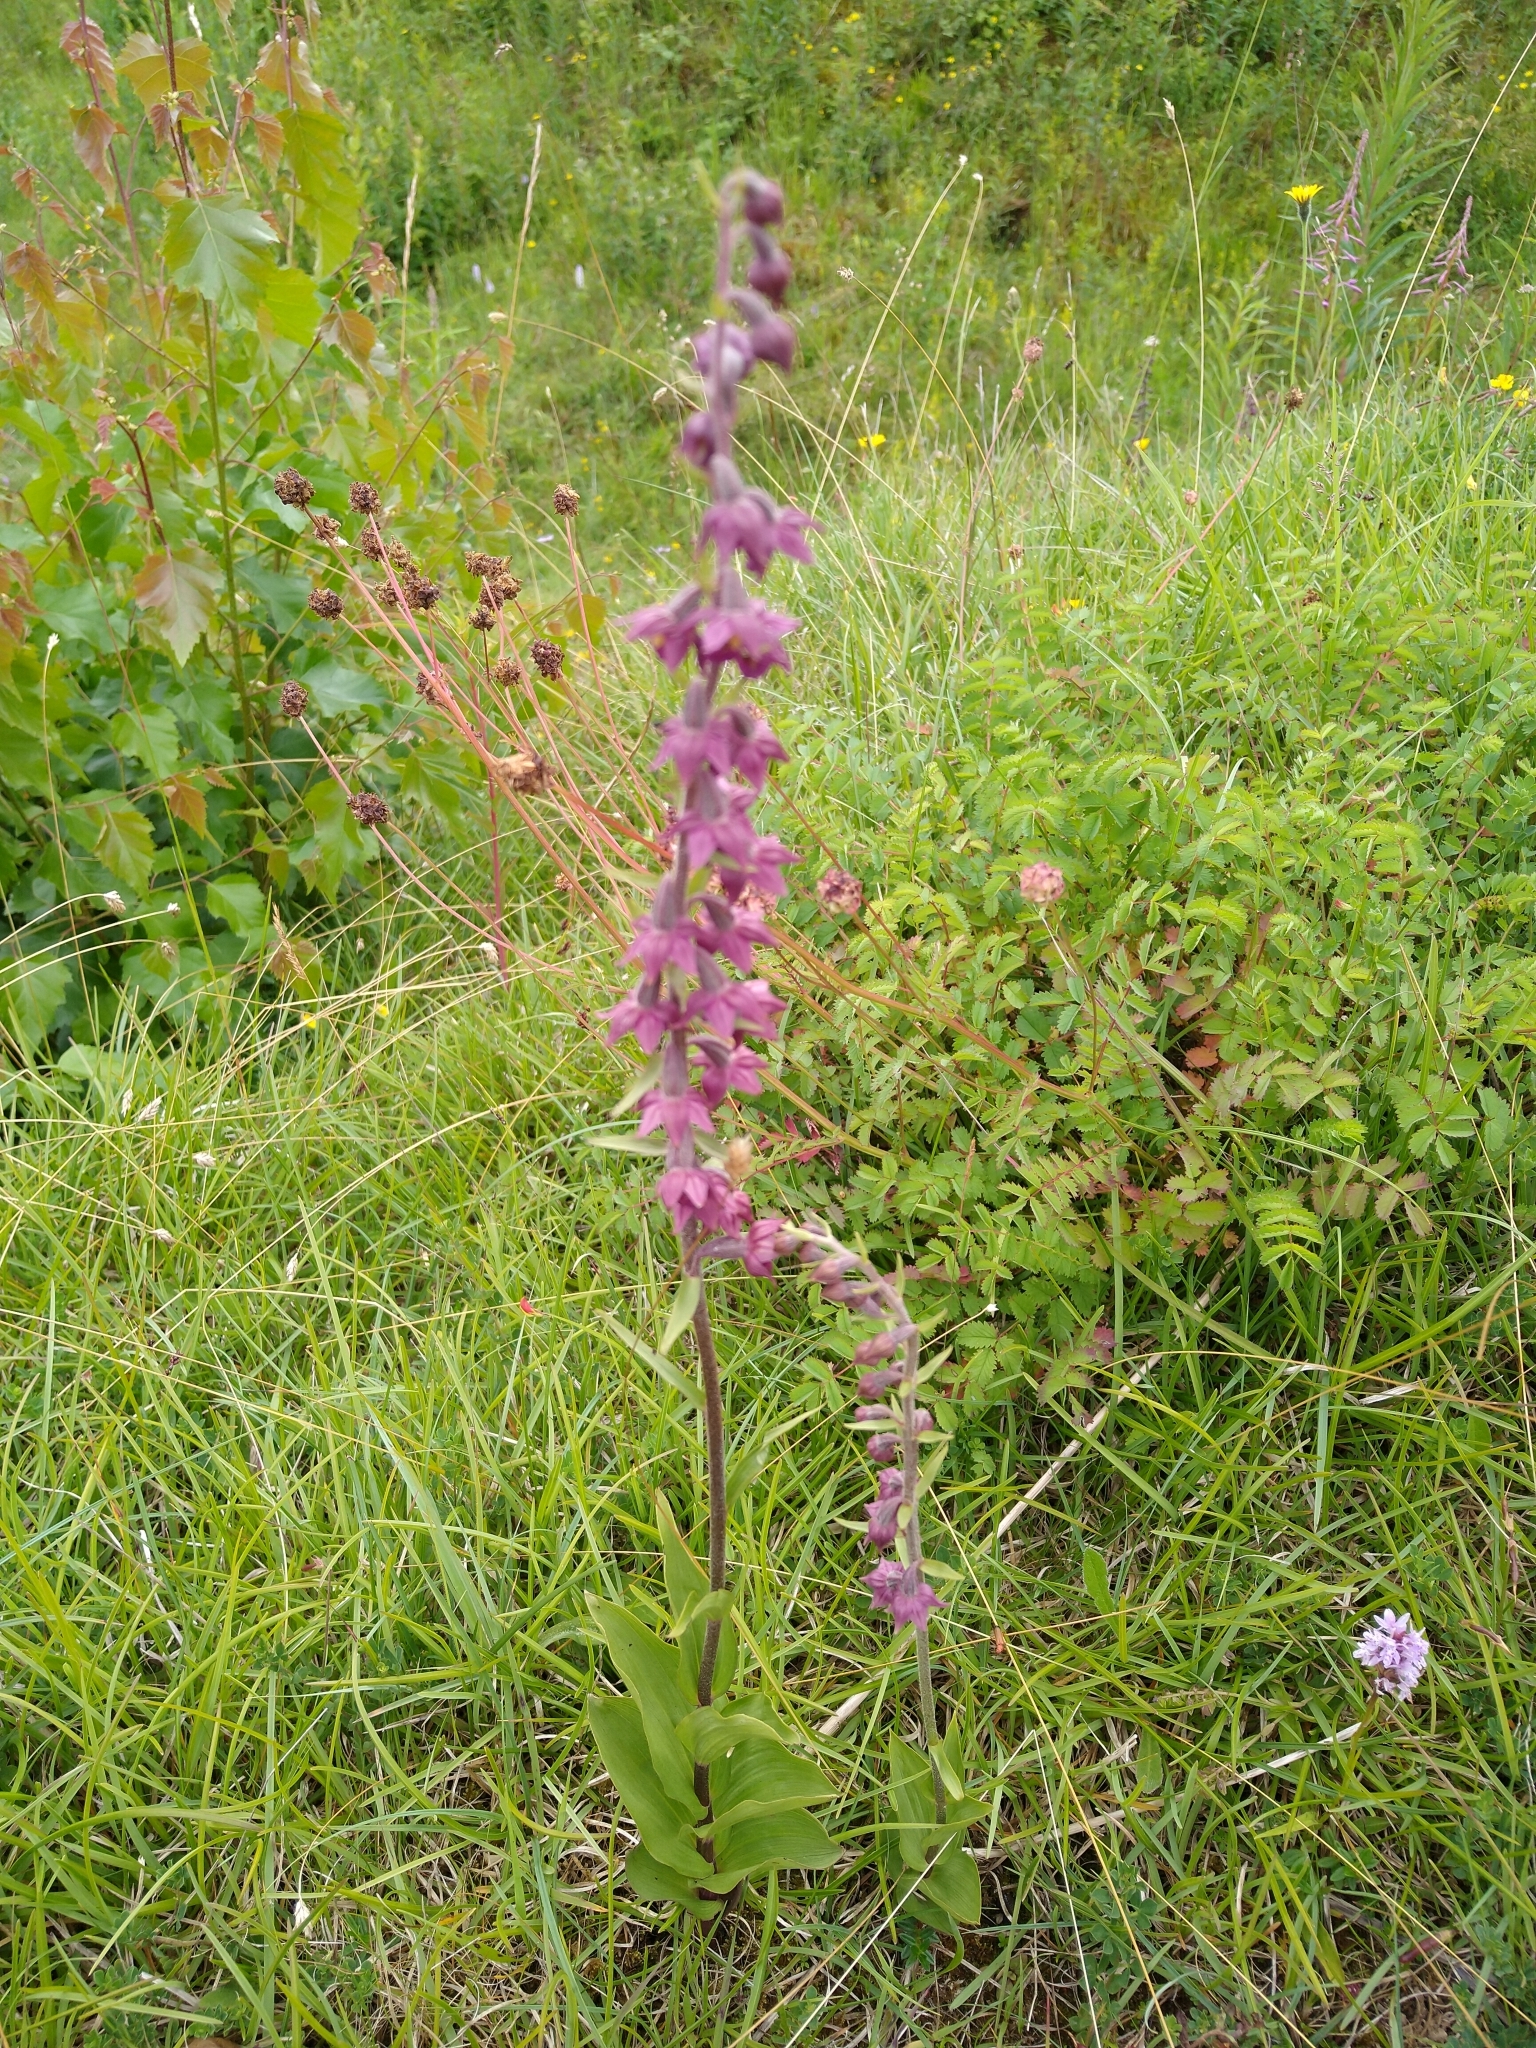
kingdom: Plantae
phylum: Tracheophyta
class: Liliopsida
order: Asparagales
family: Orchidaceae
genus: Epipactis
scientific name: Epipactis atrorubens
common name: Dark-red helleborine
